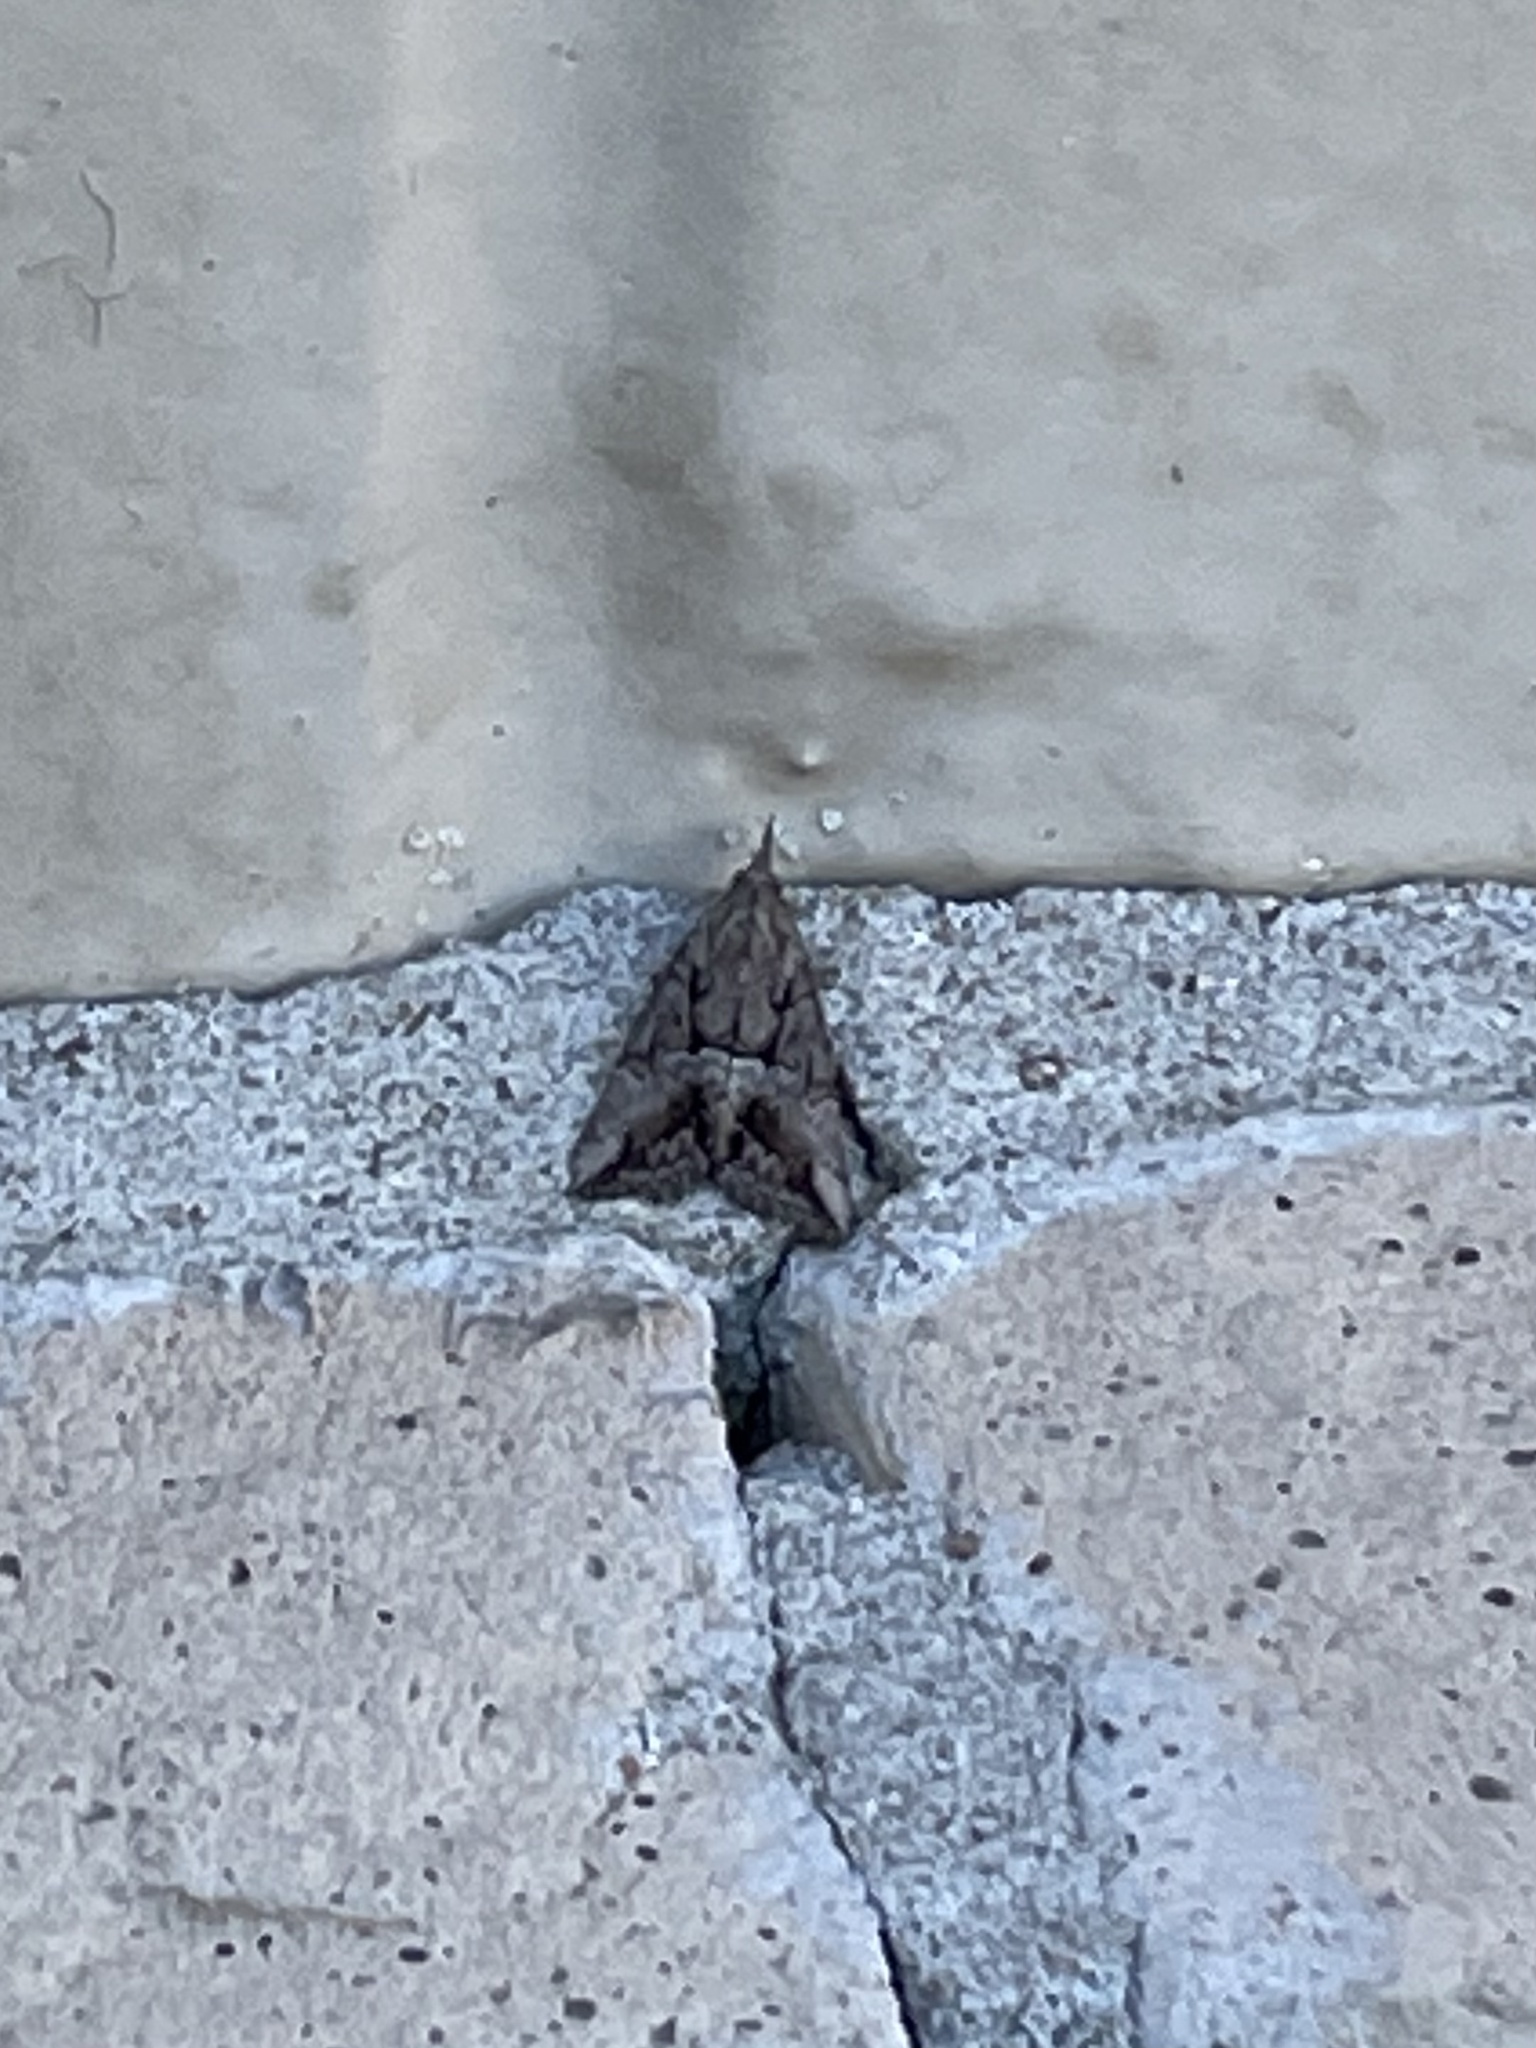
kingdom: Animalia
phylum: Arthropoda
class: Insecta
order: Lepidoptera
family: Erebidae
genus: Hypena
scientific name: Hypena scabra
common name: Green cloverworm
